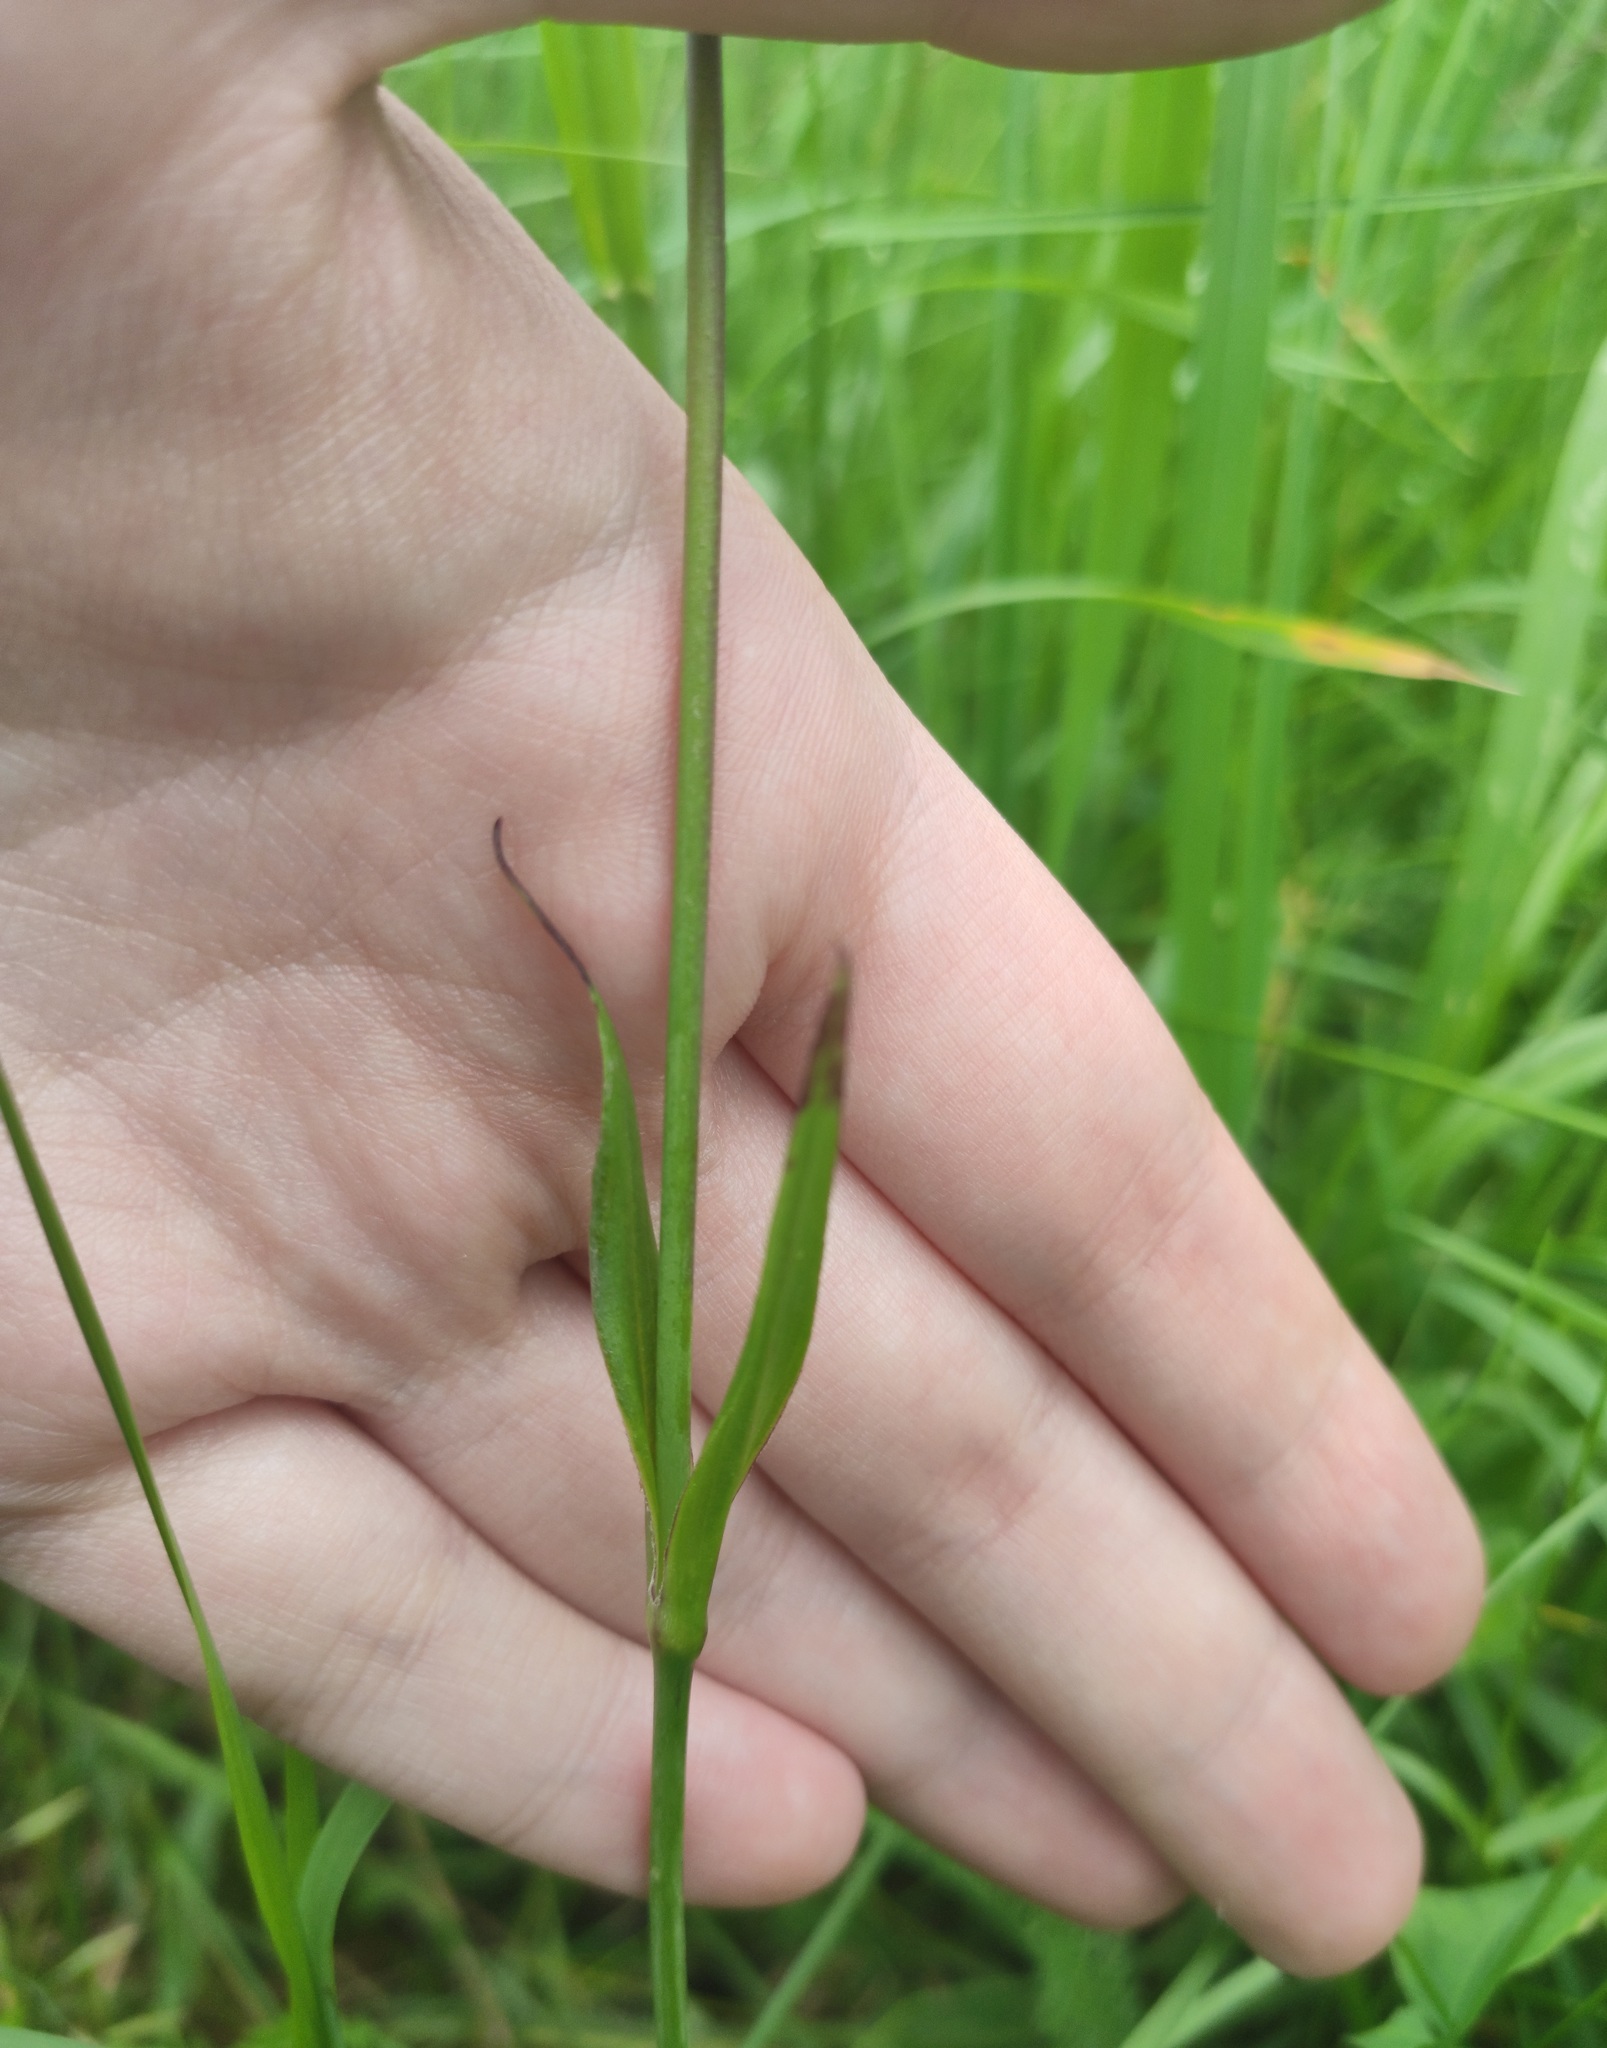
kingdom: Plantae
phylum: Tracheophyta
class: Magnoliopsida
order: Caryophyllales
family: Caryophyllaceae
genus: Viscaria
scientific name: Viscaria vulgaris
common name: Clammy campion
